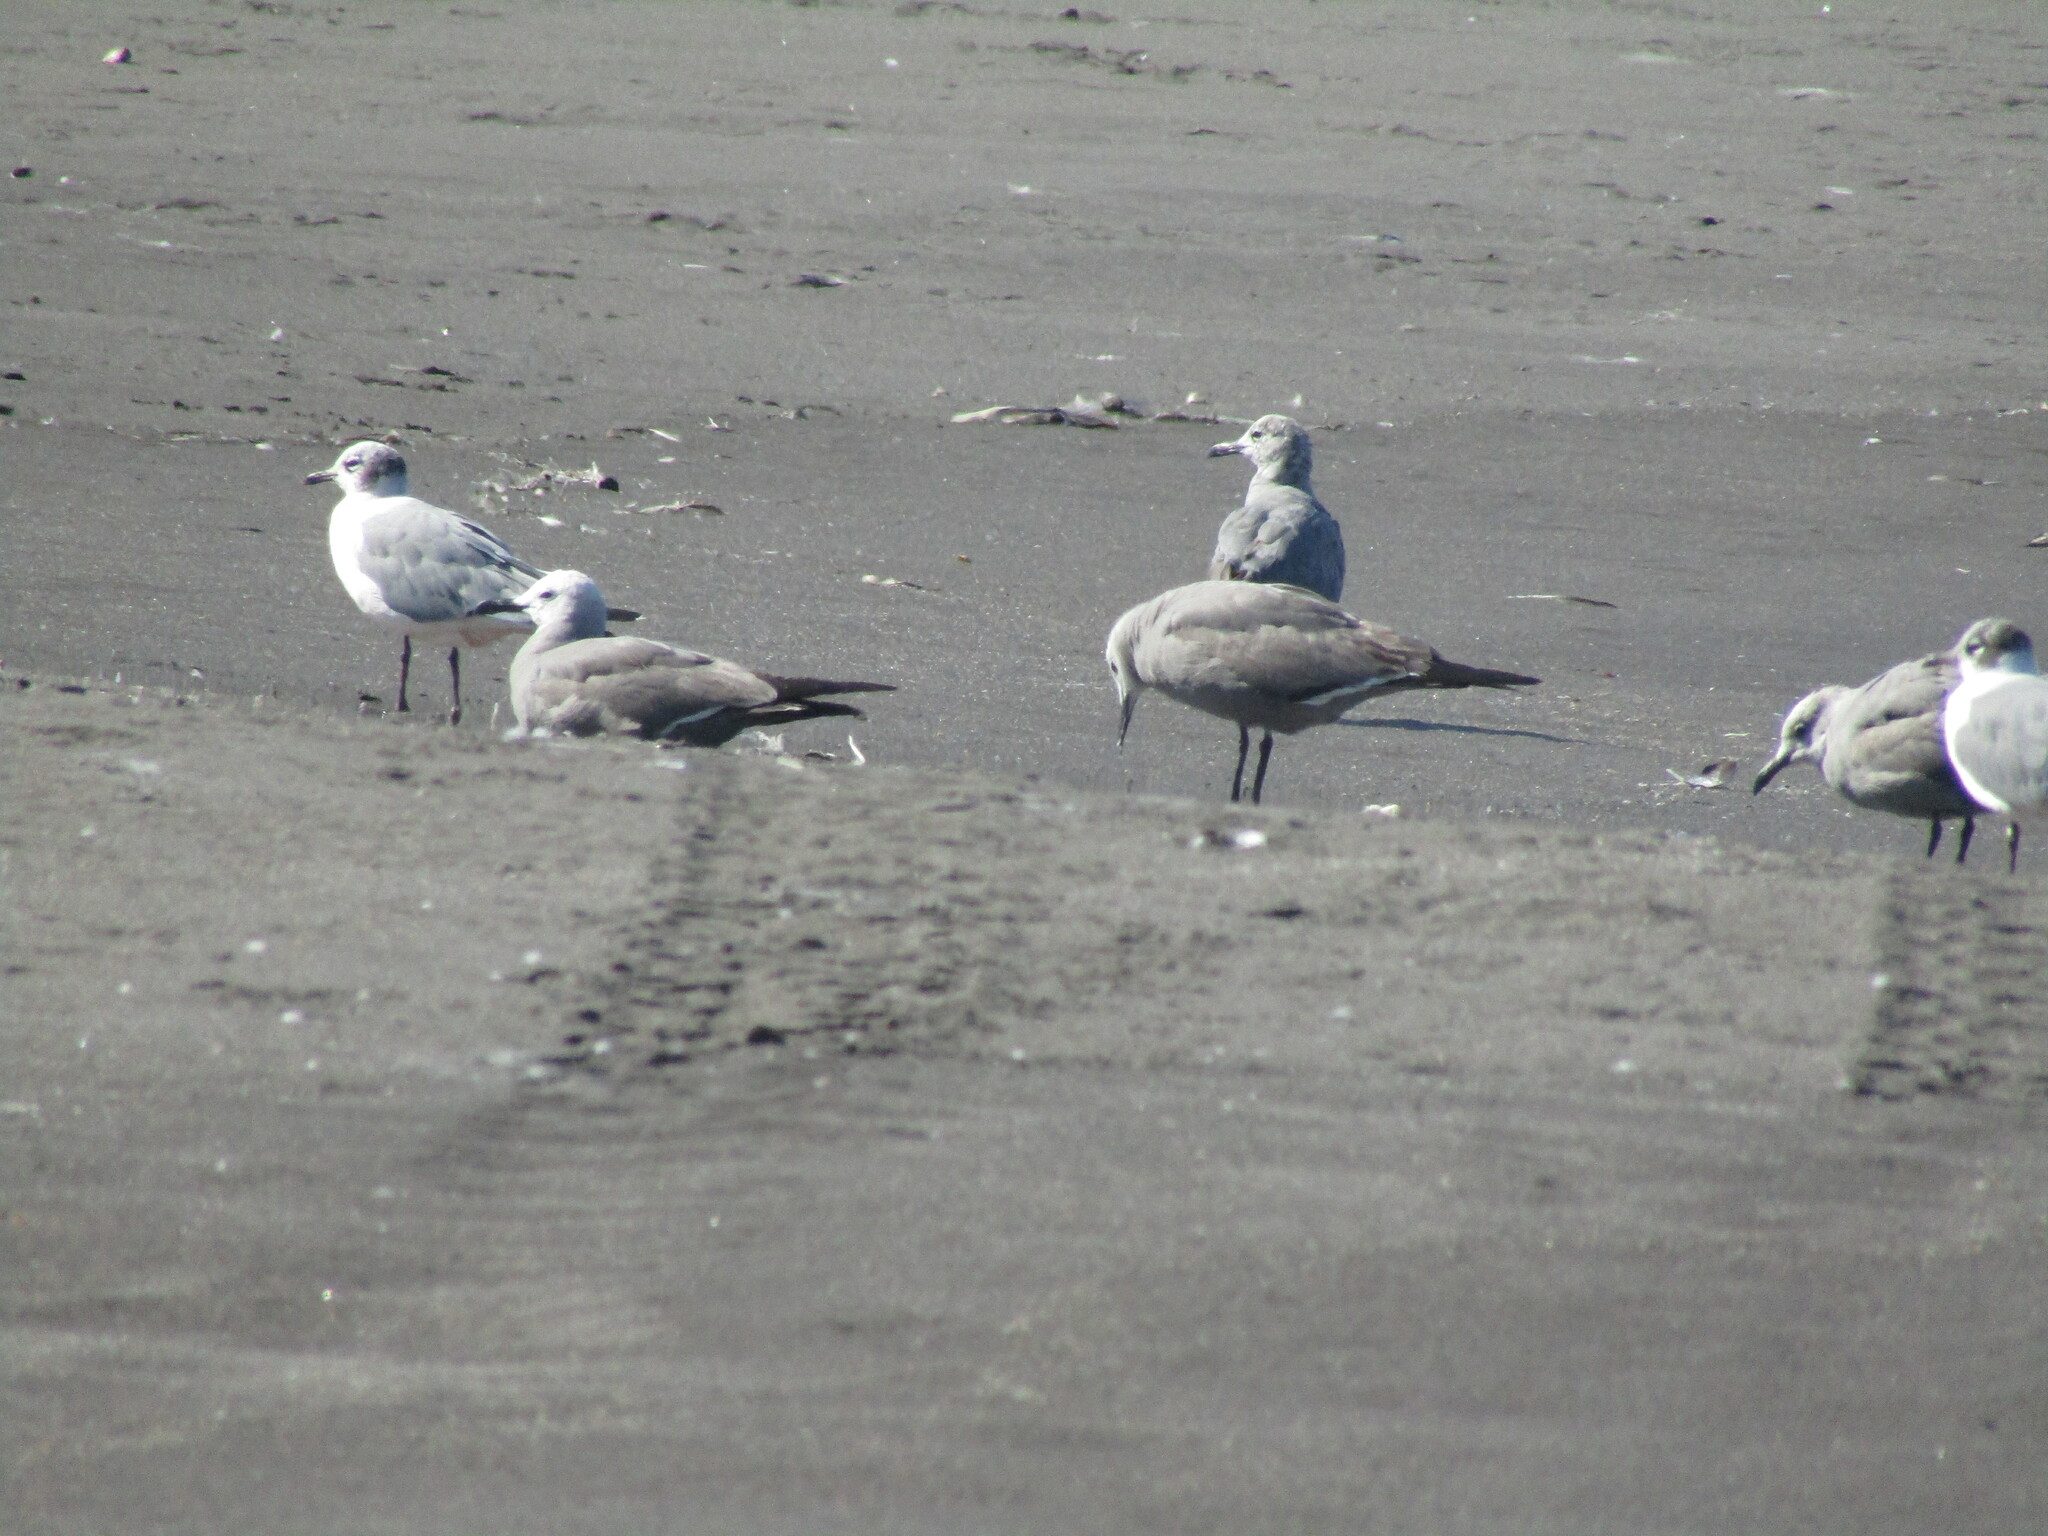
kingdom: Animalia
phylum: Chordata
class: Aves
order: Charadriiformes
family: Laridae
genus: Leucophaeus
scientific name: Leucophaeus modestus
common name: Gray gull
